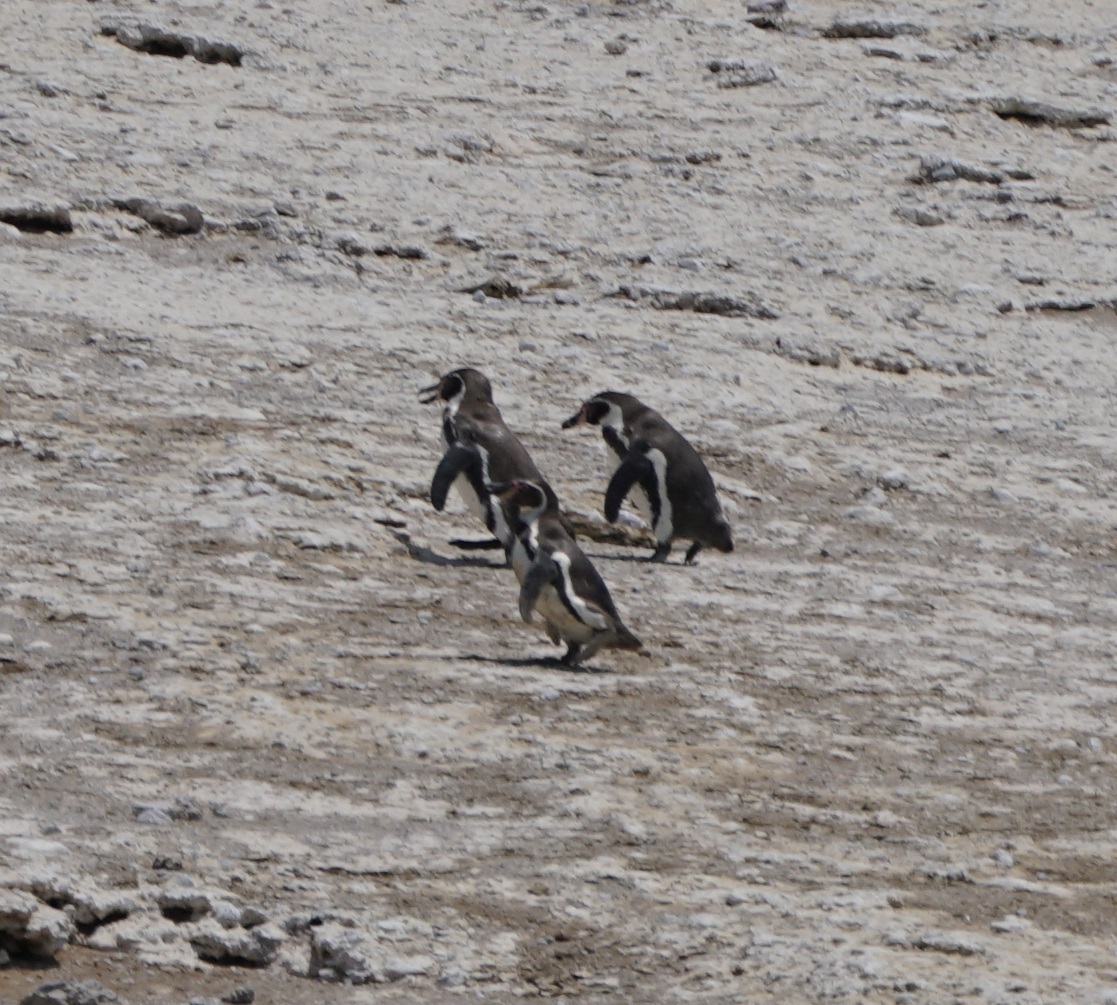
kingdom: Animalia
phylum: Chordata
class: Aves
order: Sphenisciformes
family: Spheniscidae
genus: Spheniscus
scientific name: Spheniscus humboldti
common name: Humboldt penguin
